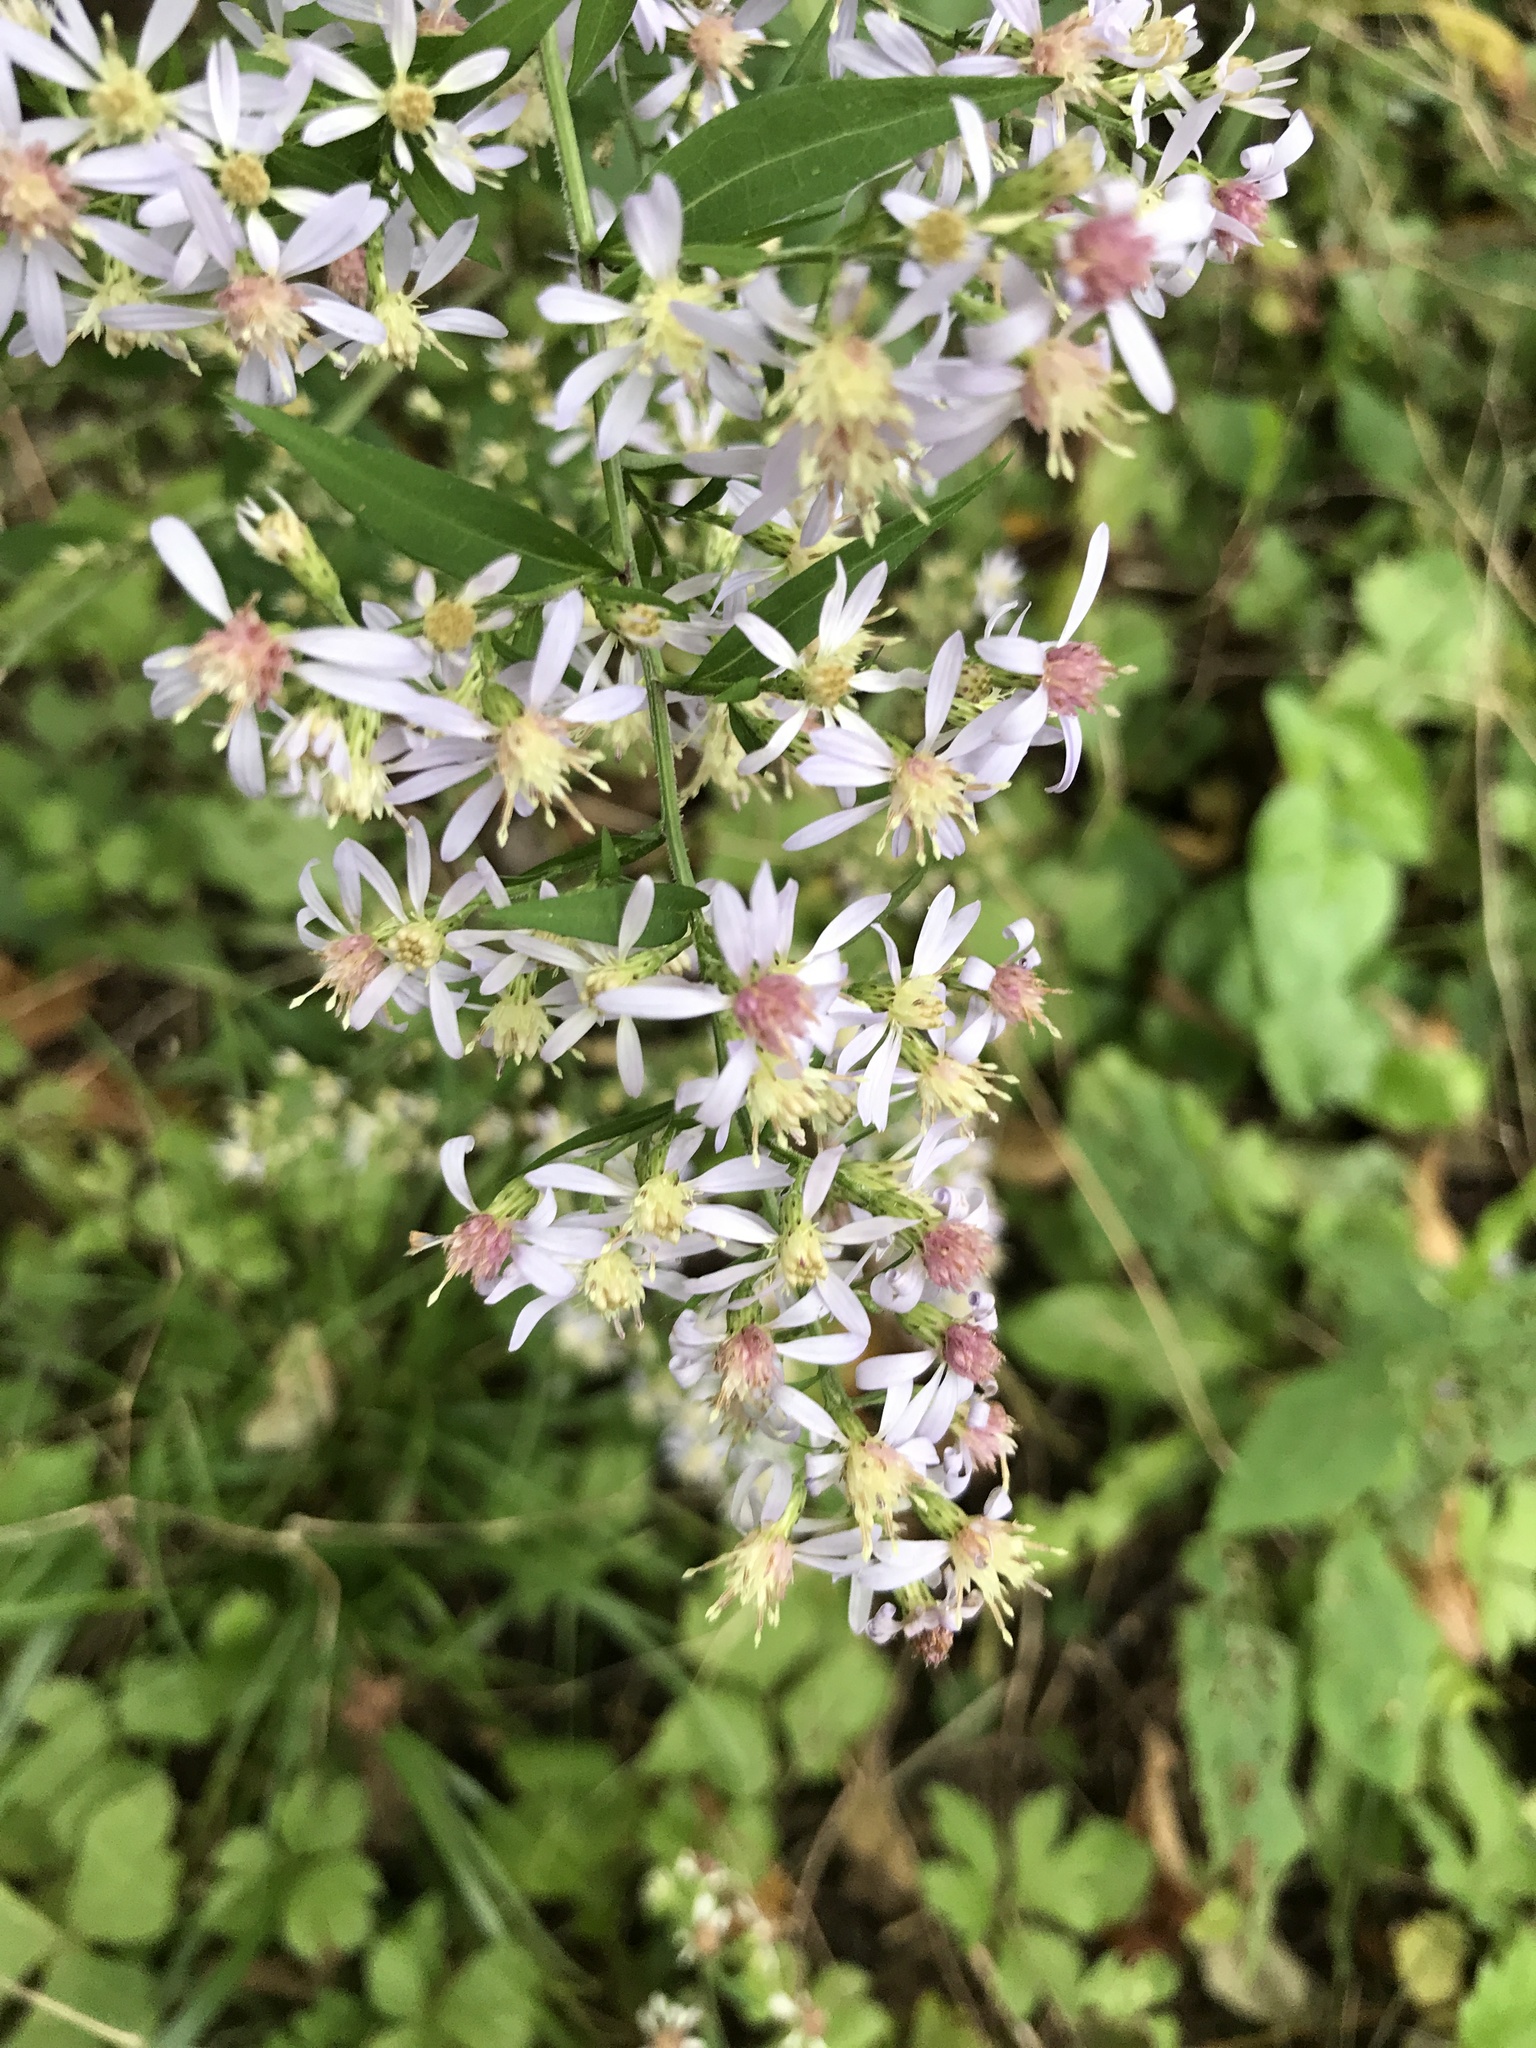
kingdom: Plantae
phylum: Tracheophyta
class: Magnoliopsida
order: Asterales
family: Asteraceae
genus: Symphyotrichum
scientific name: Symphyotrichum cordifolium
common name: Beeweed
